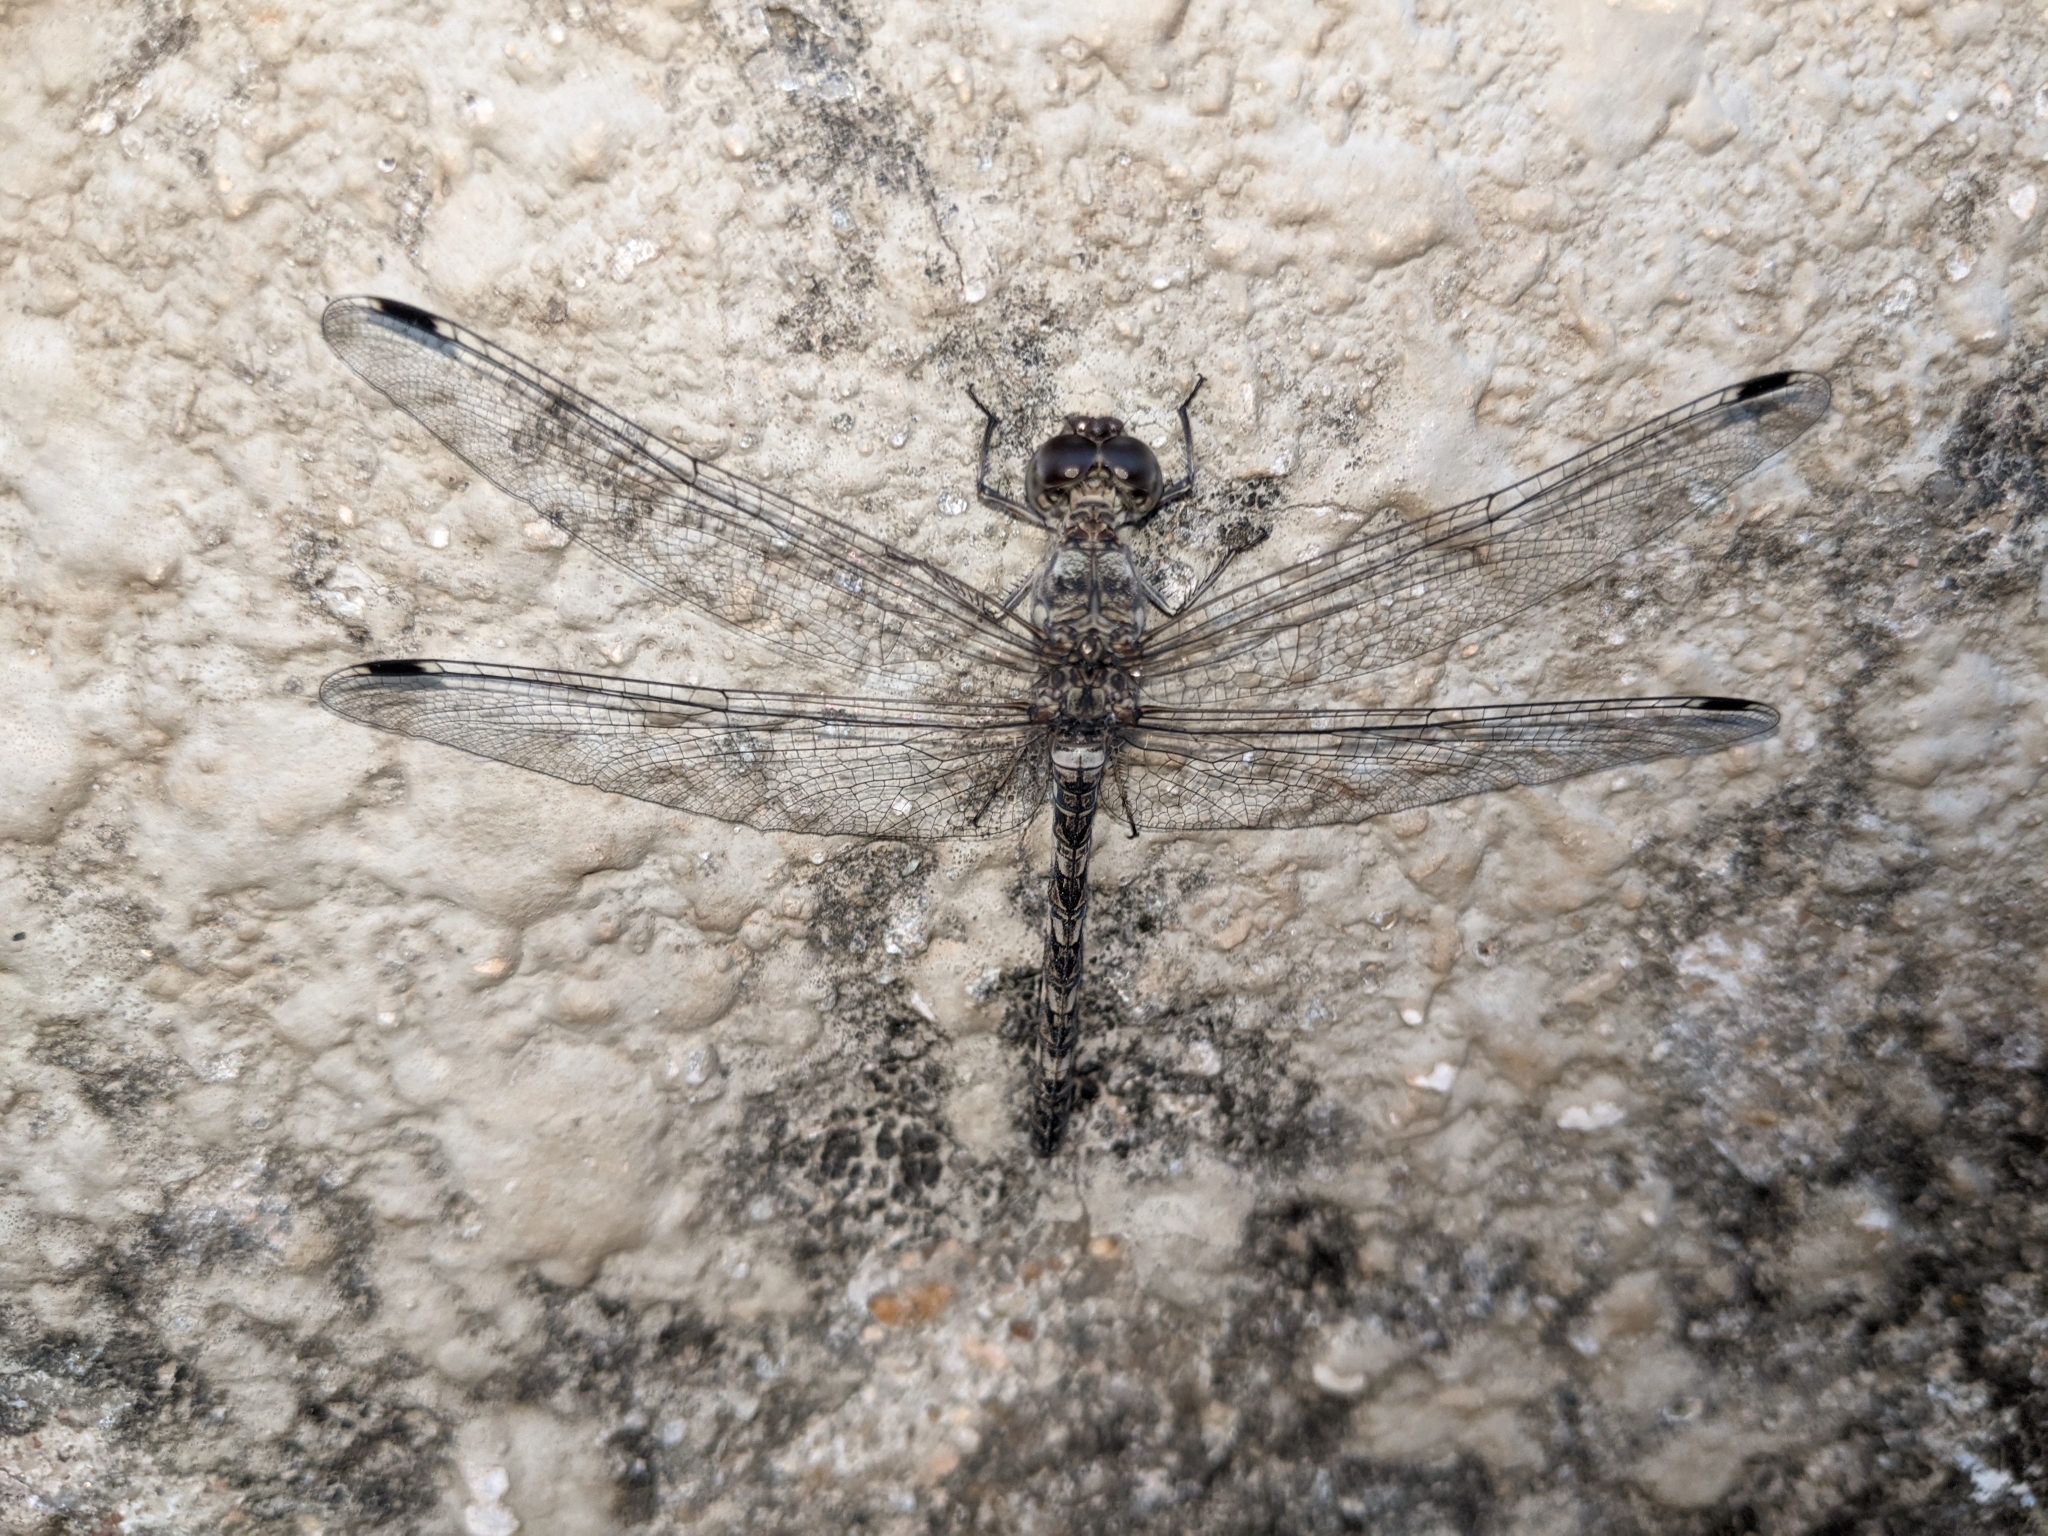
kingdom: Animalia
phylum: Arthropoda
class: Insecta
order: Odonata
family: Libellulidae
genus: Bradinopyga
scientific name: Bradinopyga geminata
